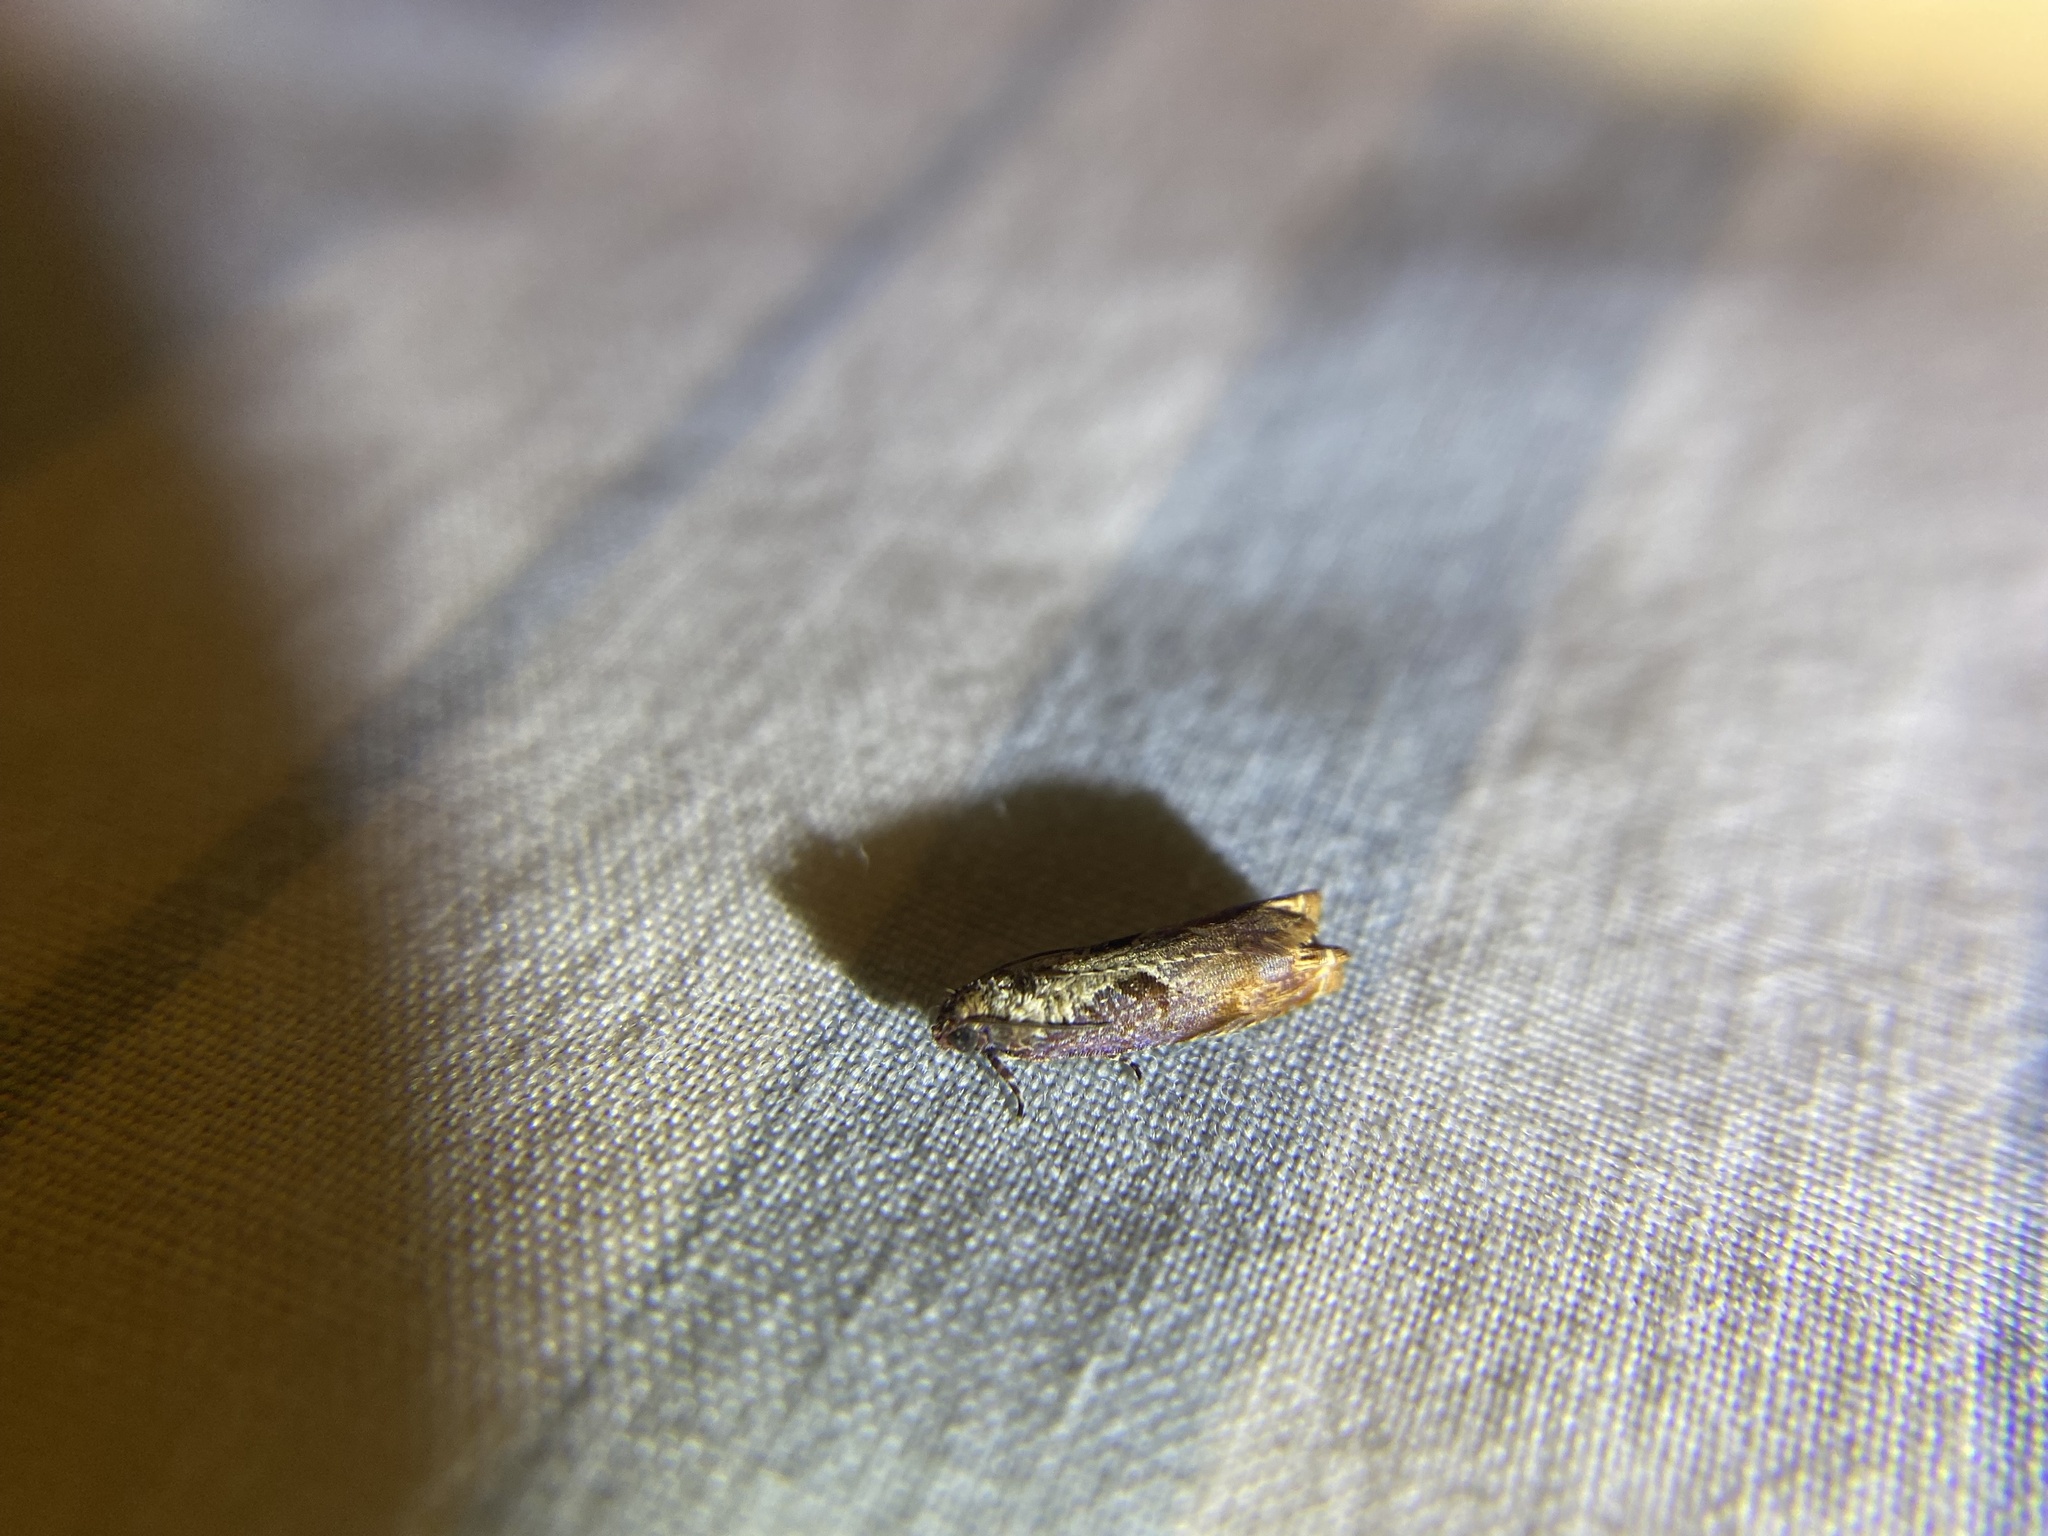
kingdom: Animalia
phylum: Arthropoda
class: Insecta
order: Lepidoptera
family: Tortricidae
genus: Episimus
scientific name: Episimus tyrius
